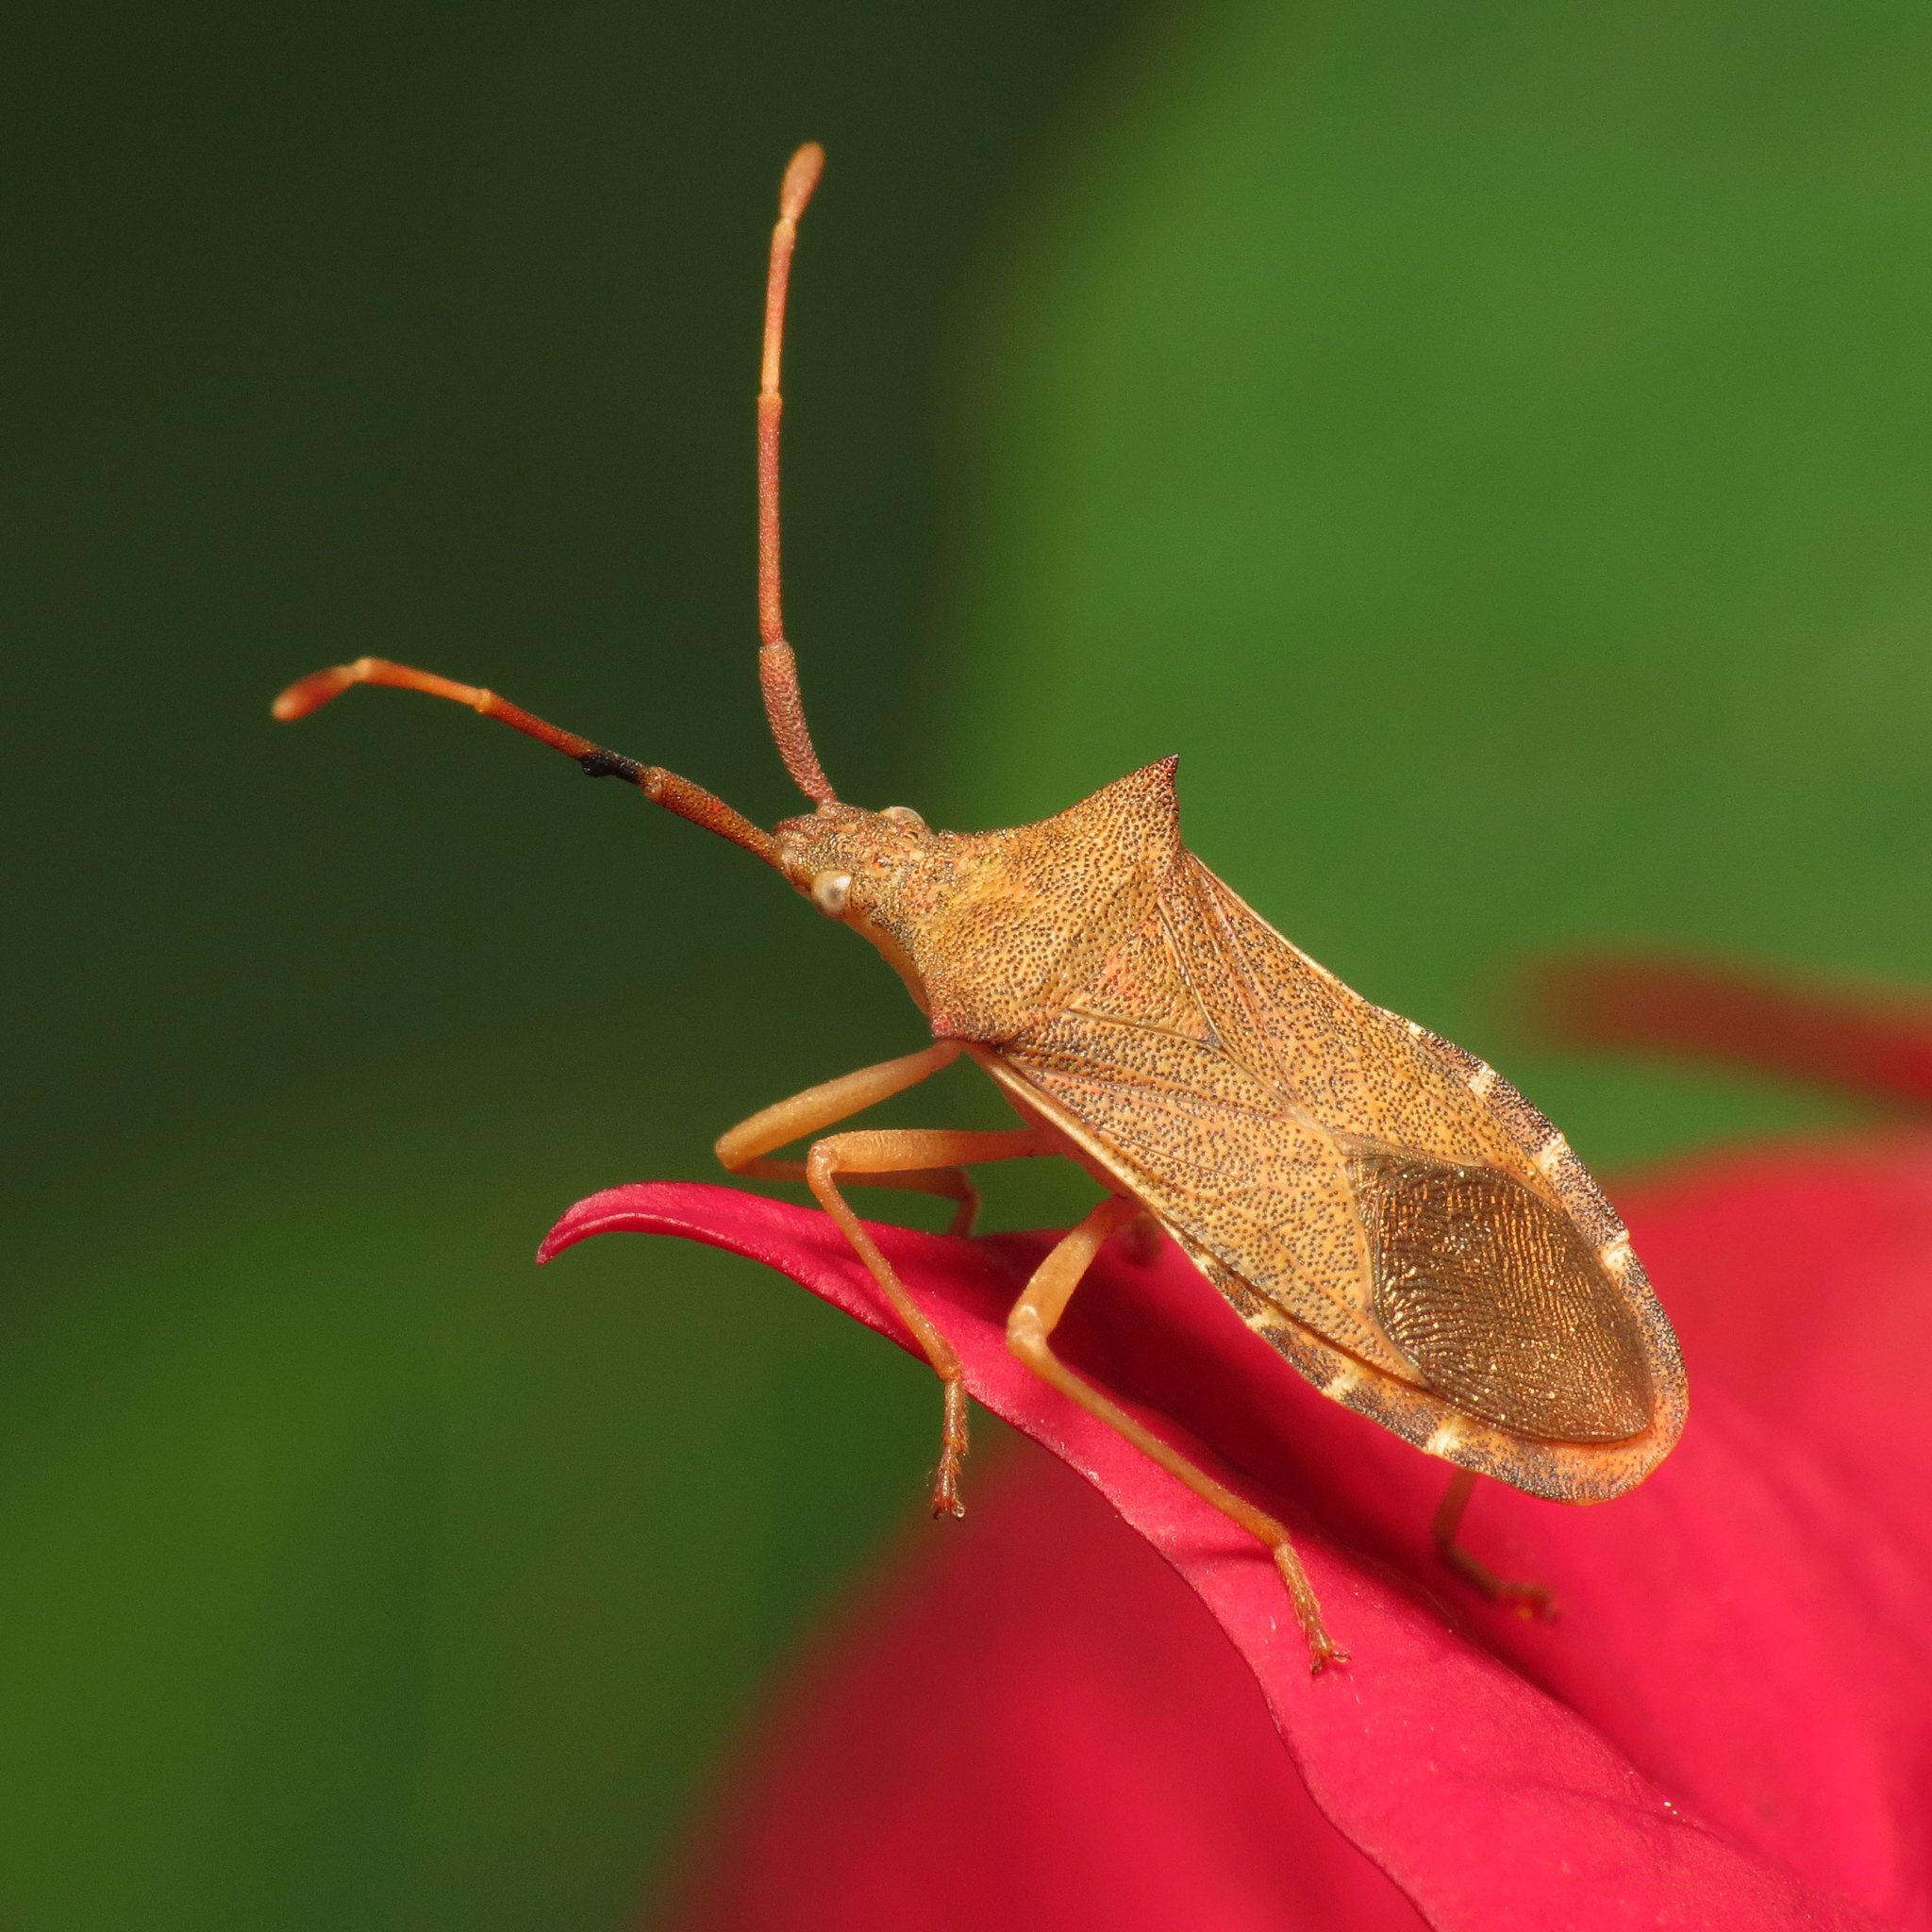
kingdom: Animalia
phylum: Arthropoda
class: Insecta
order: Hemiptera
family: Coreidae
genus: Gonocerus
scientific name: Gonocerus acuteangulatus
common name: Box bug
